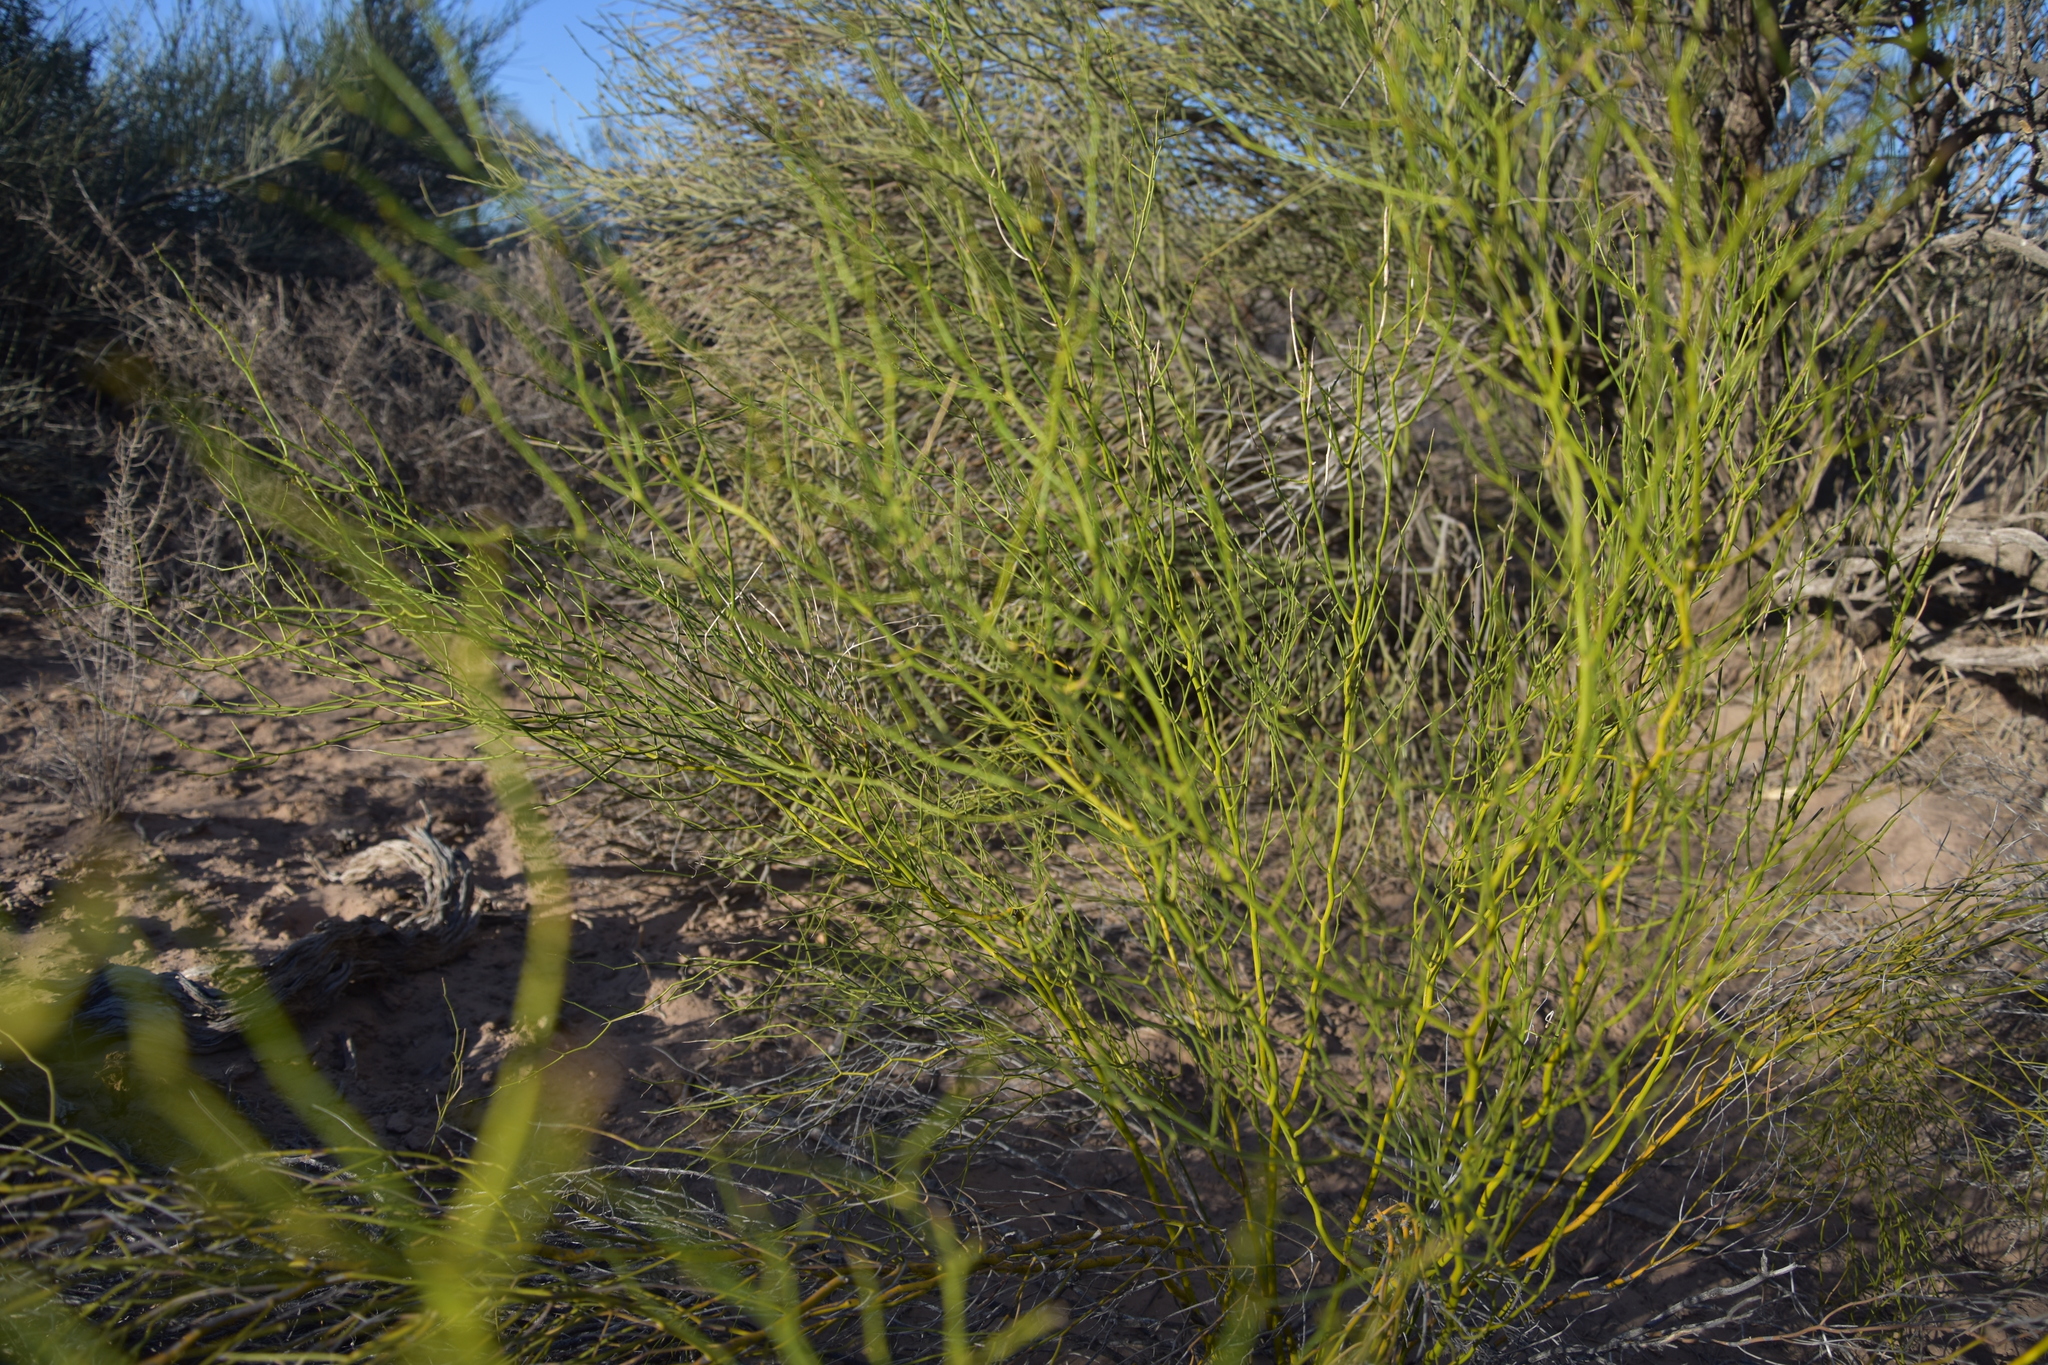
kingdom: Plantae
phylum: Tracheophyta
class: Magnoliopsida
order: Fabales
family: Fabaceae
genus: Senna
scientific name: Senna aphylla
